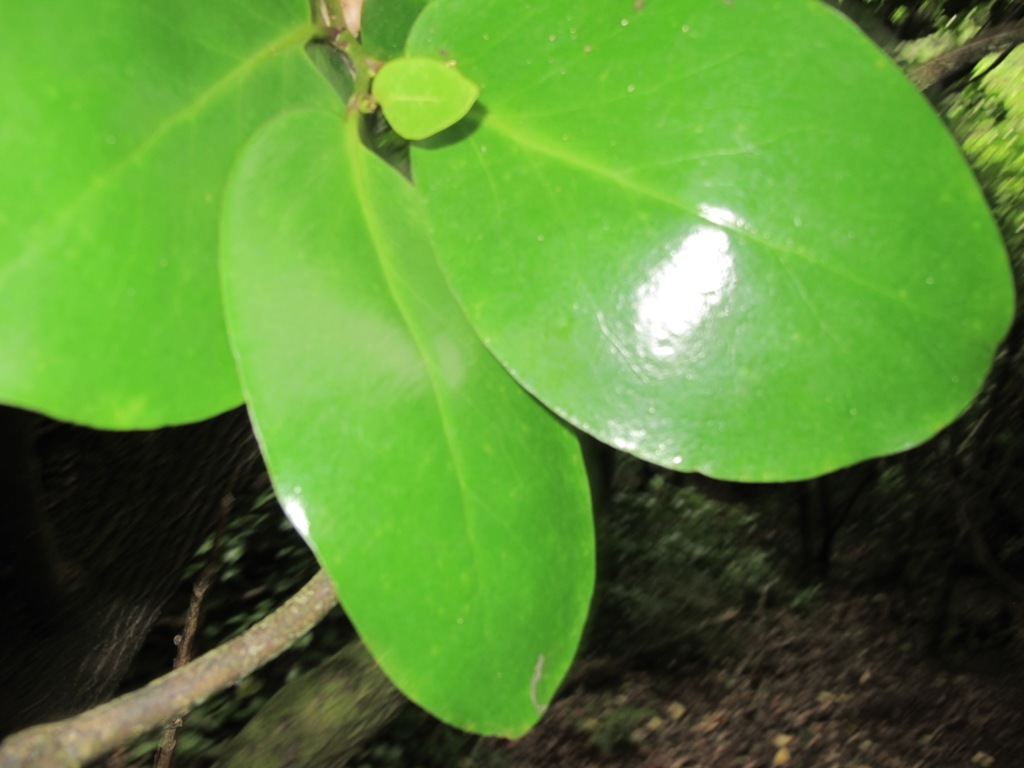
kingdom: Plantae
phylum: Tracheophyta
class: Magnoliopsida
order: Apiales
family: Griseliniaceae
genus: Griselinia
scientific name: Griselinia lucida
